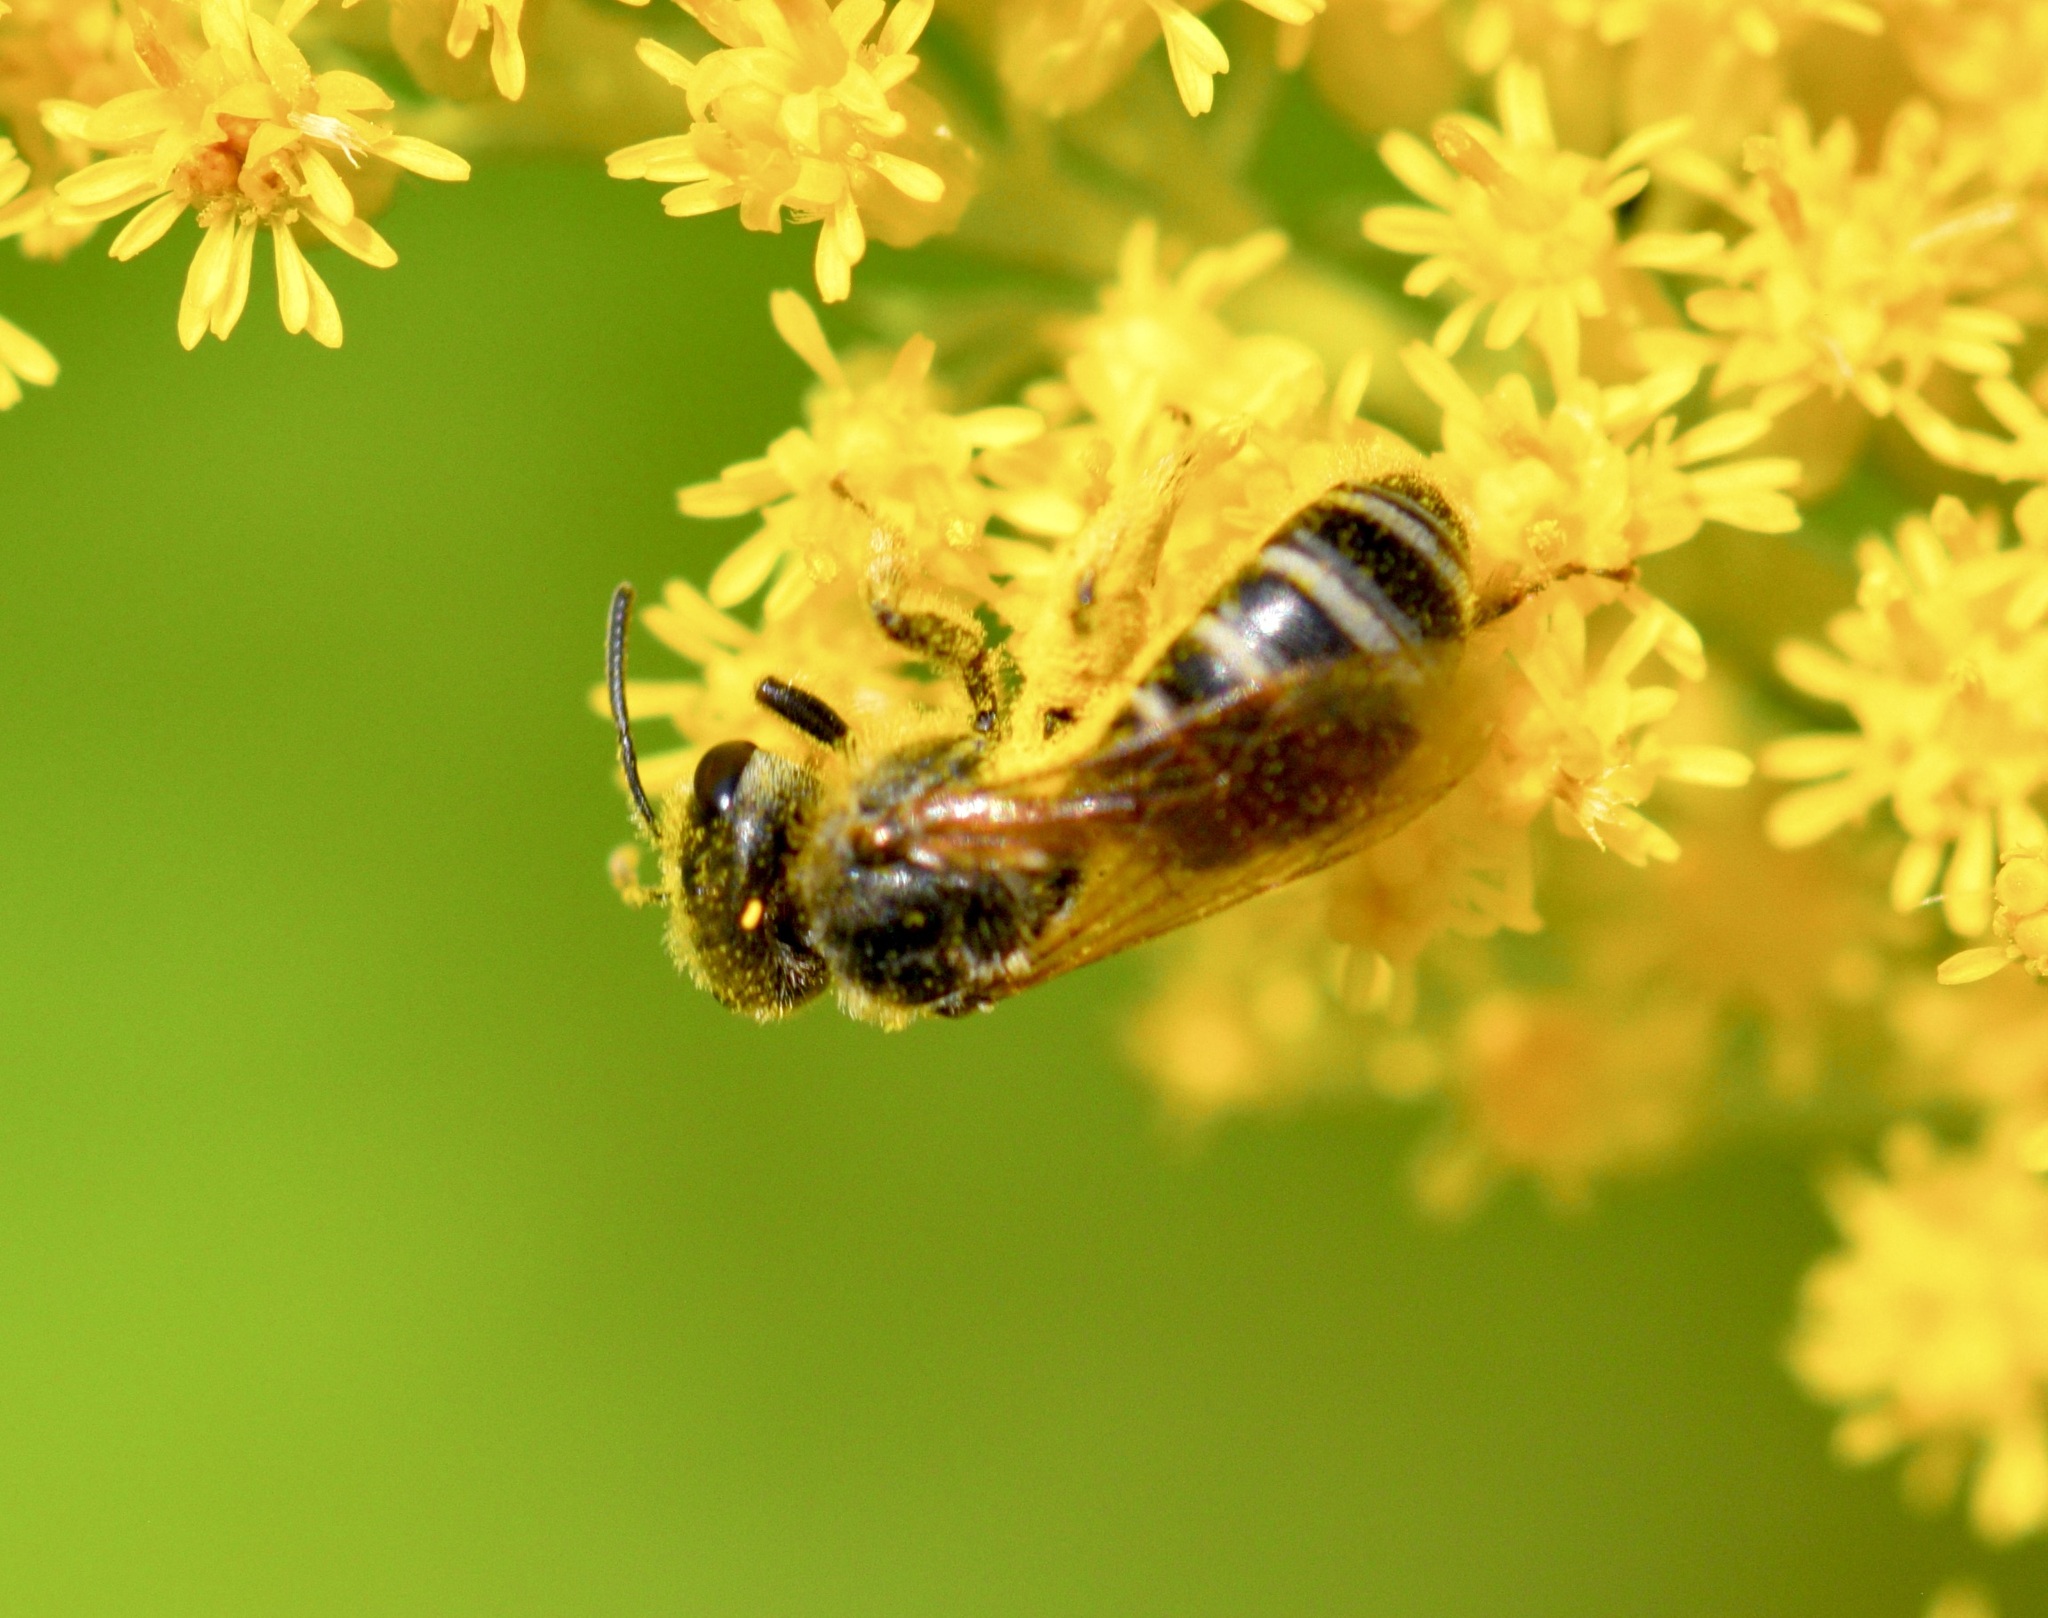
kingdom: Animalia
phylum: Arthropoda
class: Insecta
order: Hymenoptera
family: Halictidae
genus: Halictus
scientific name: Halictus ligatus
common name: Ligated furrow bee
